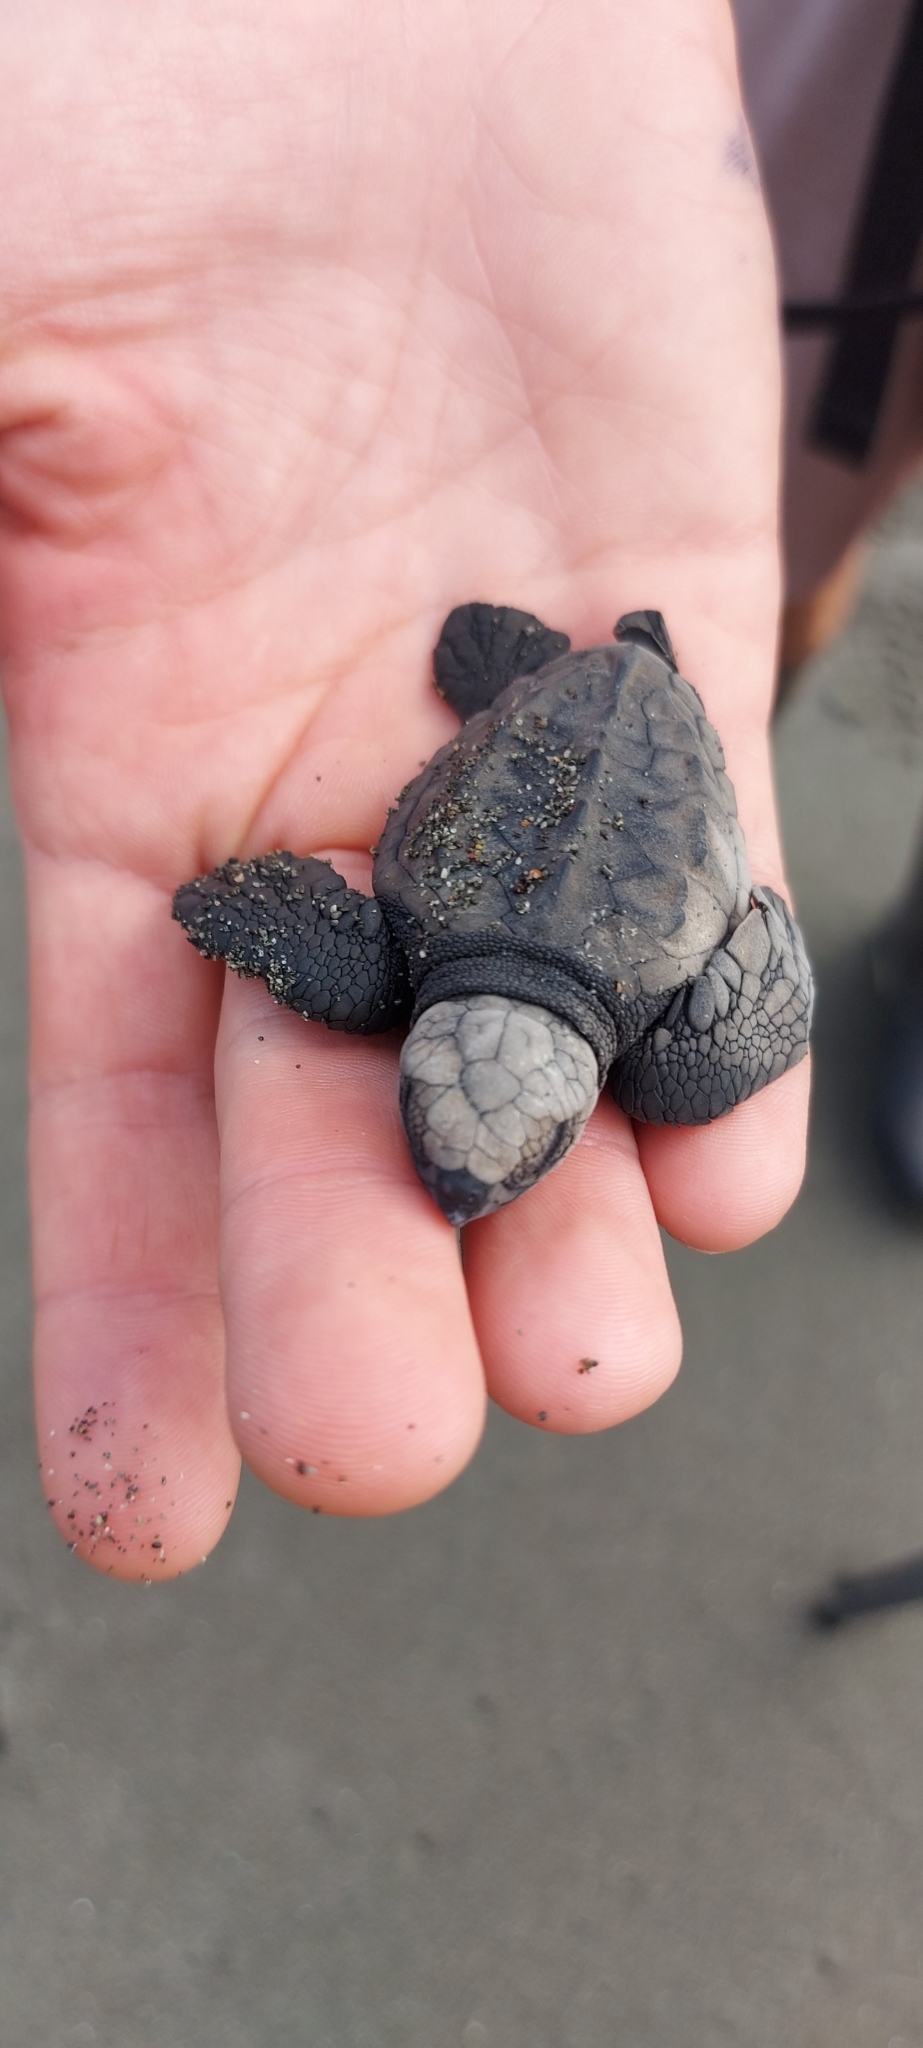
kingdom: Animalia
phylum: Chordata
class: Testudines
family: Cheloniidae
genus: Lepidochelys
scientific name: Lepidochelys olivacea
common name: Olive ridley
